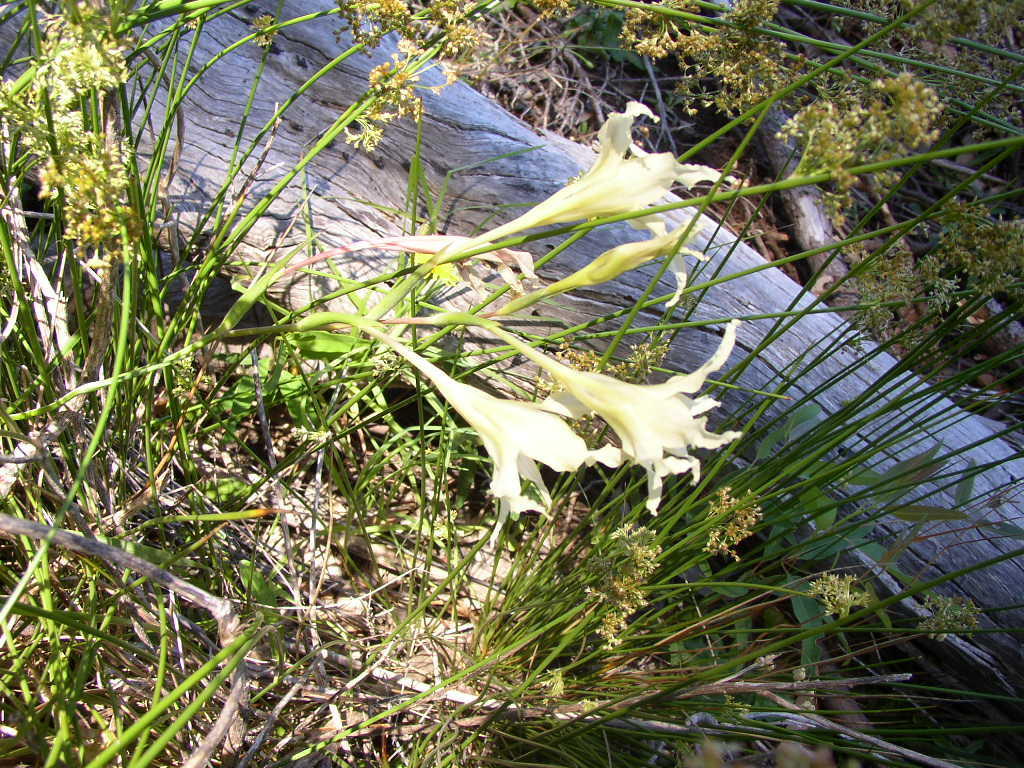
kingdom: Plantae
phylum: Tracheophyta
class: Liliopsida
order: Asparagales
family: Iridaceae
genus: Gladiolus
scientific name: Gladiolus undulatus
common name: Large painted-lady
